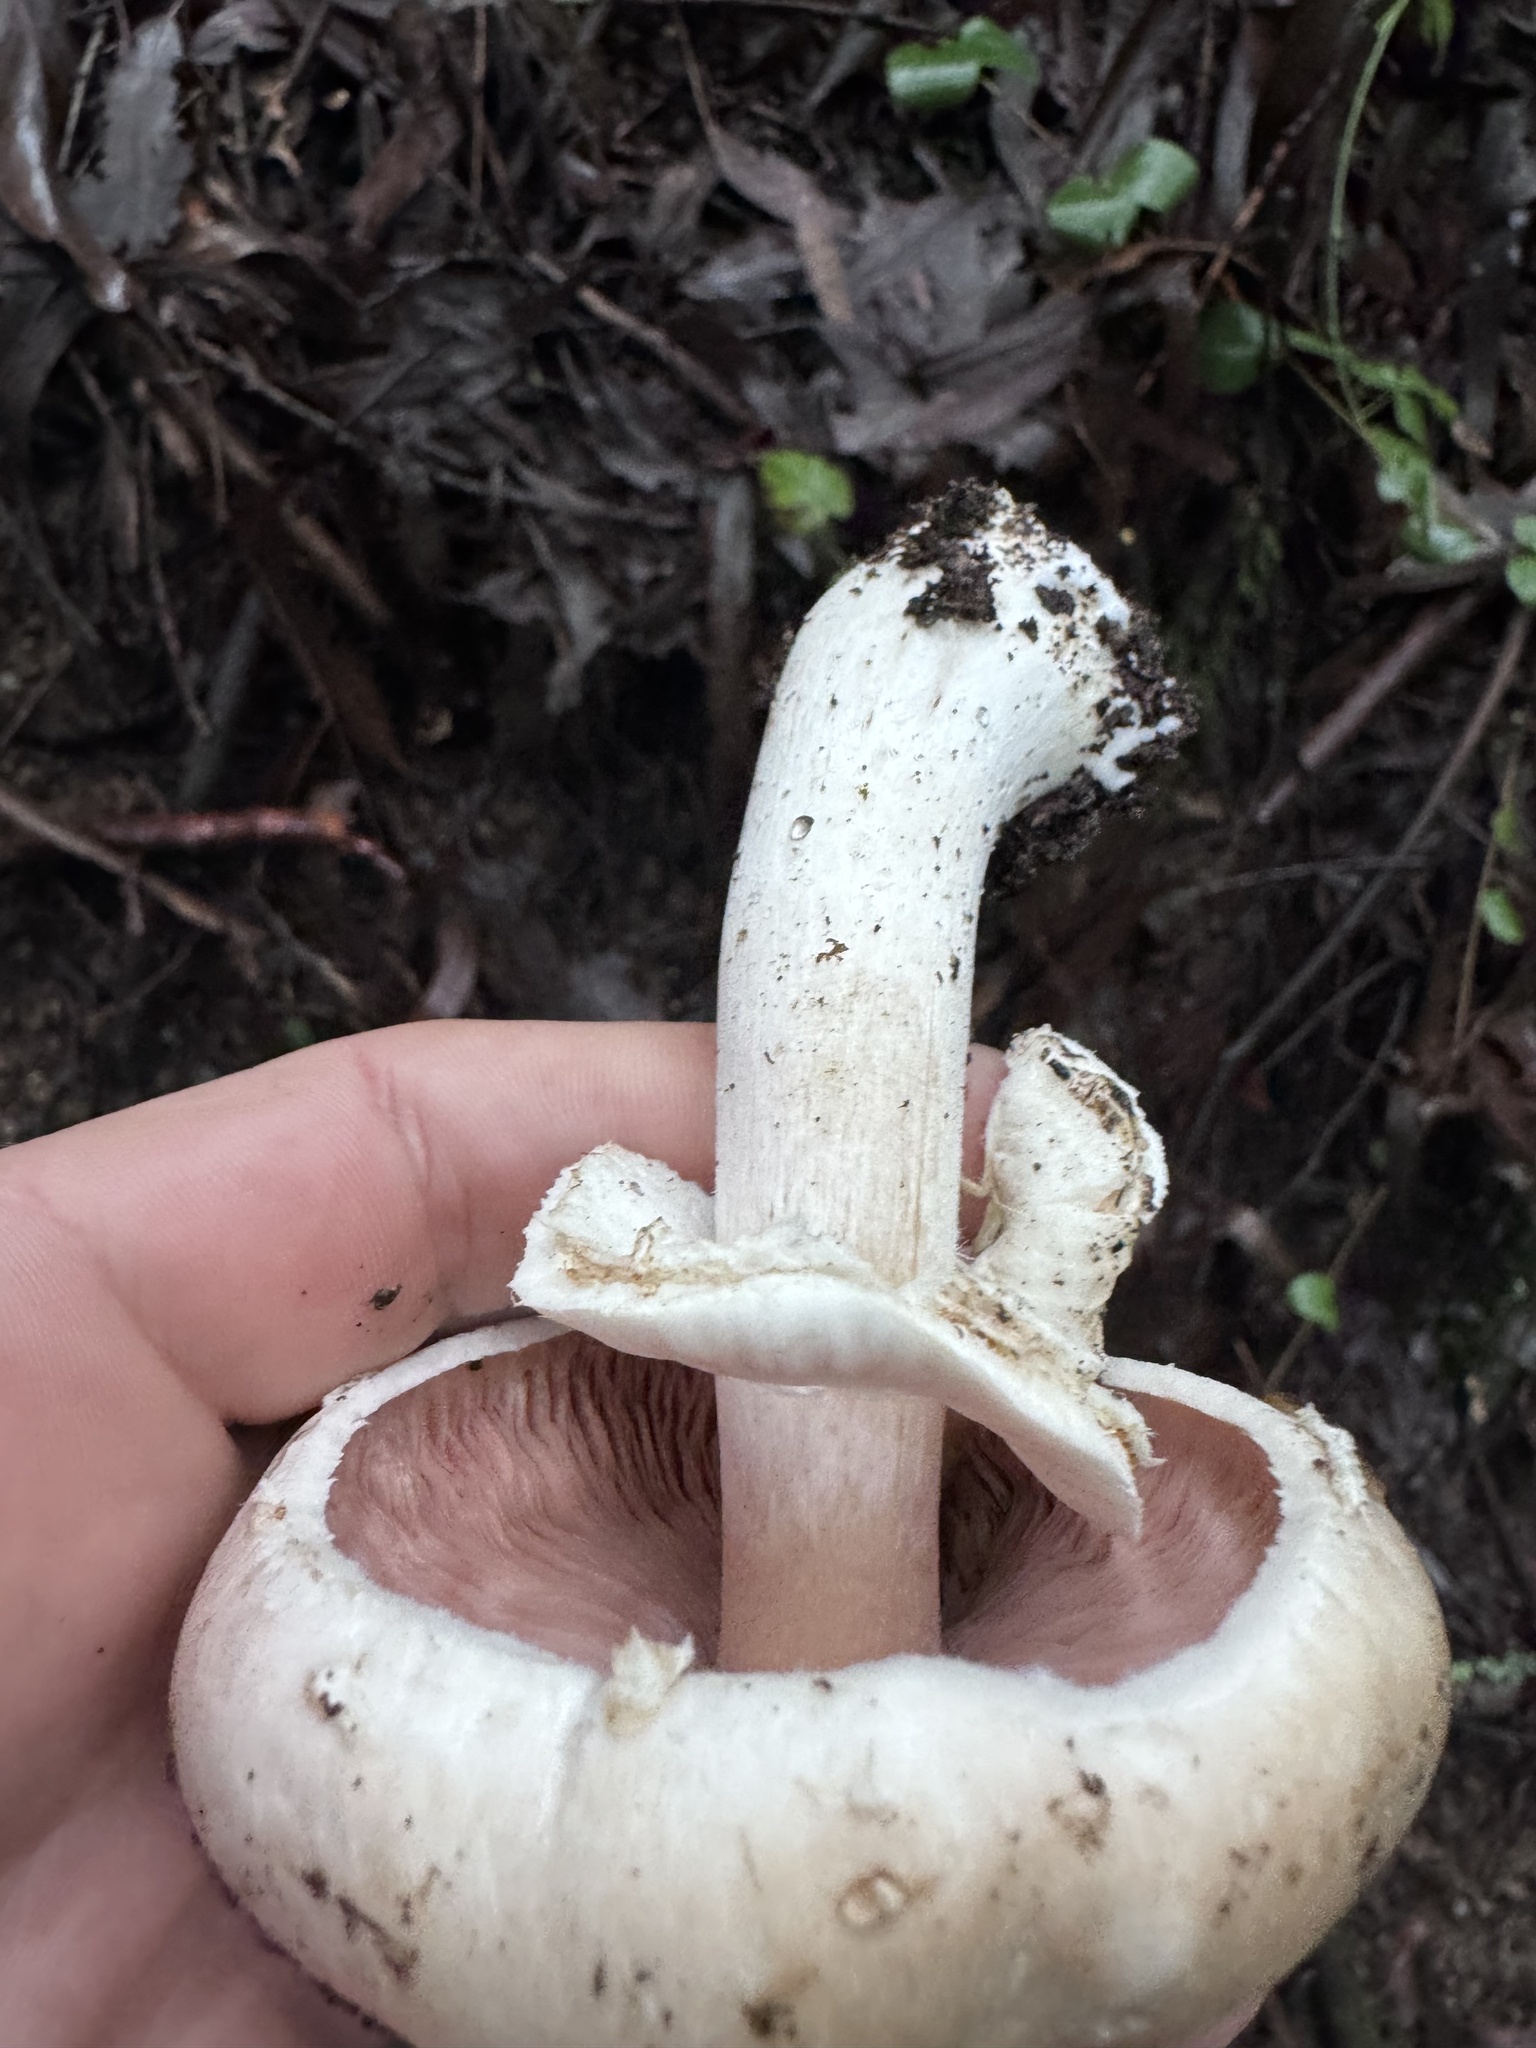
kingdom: Fungi
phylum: Basidiomycota
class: Agaricomycetes
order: Agaricales
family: Agaricaceae
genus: Agaricus
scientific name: Agaricus xanthodermus
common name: Yellow stainer
